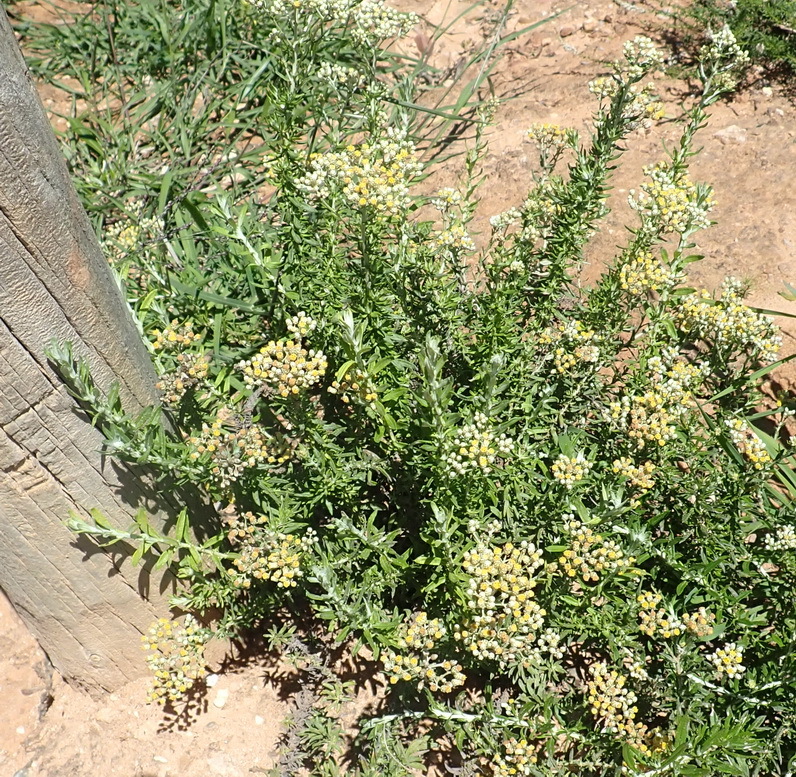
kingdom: Plantae
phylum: Tracheophyta
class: Magnoliopsida
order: Asterales
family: Asteraceae
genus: Helichrysum
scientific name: Helichrysum rosum
